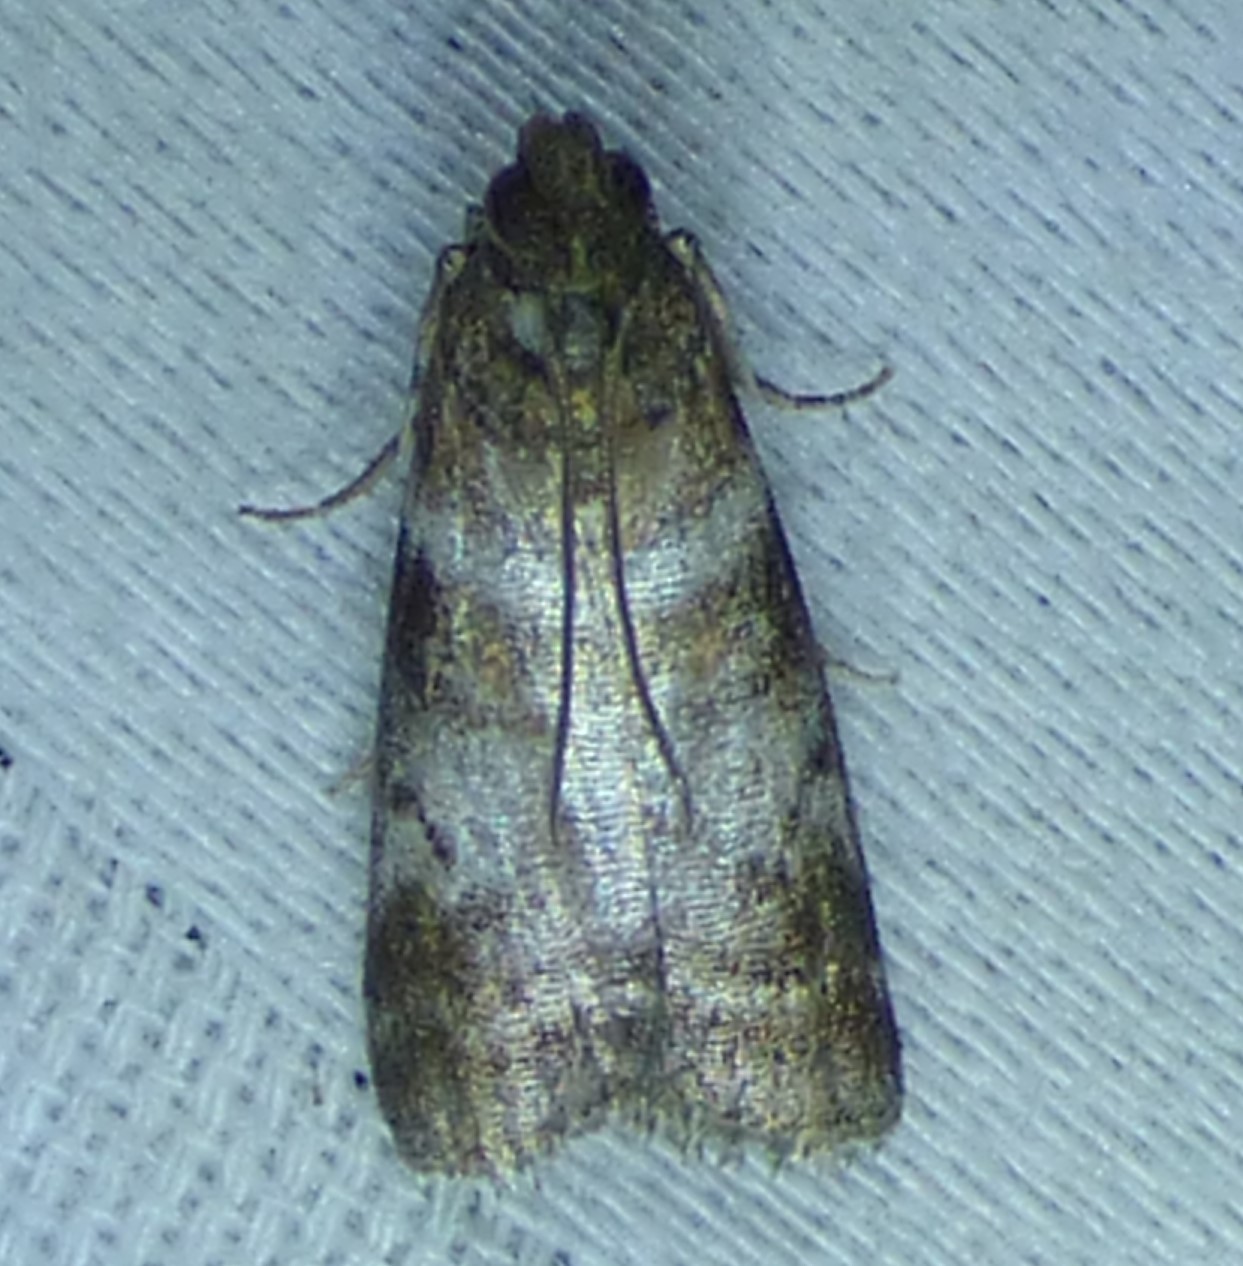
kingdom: Animalia
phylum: Arthropoda
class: Insecta
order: Lepidoptera
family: Pyralidae
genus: Sciota
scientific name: Sciota uvinella
